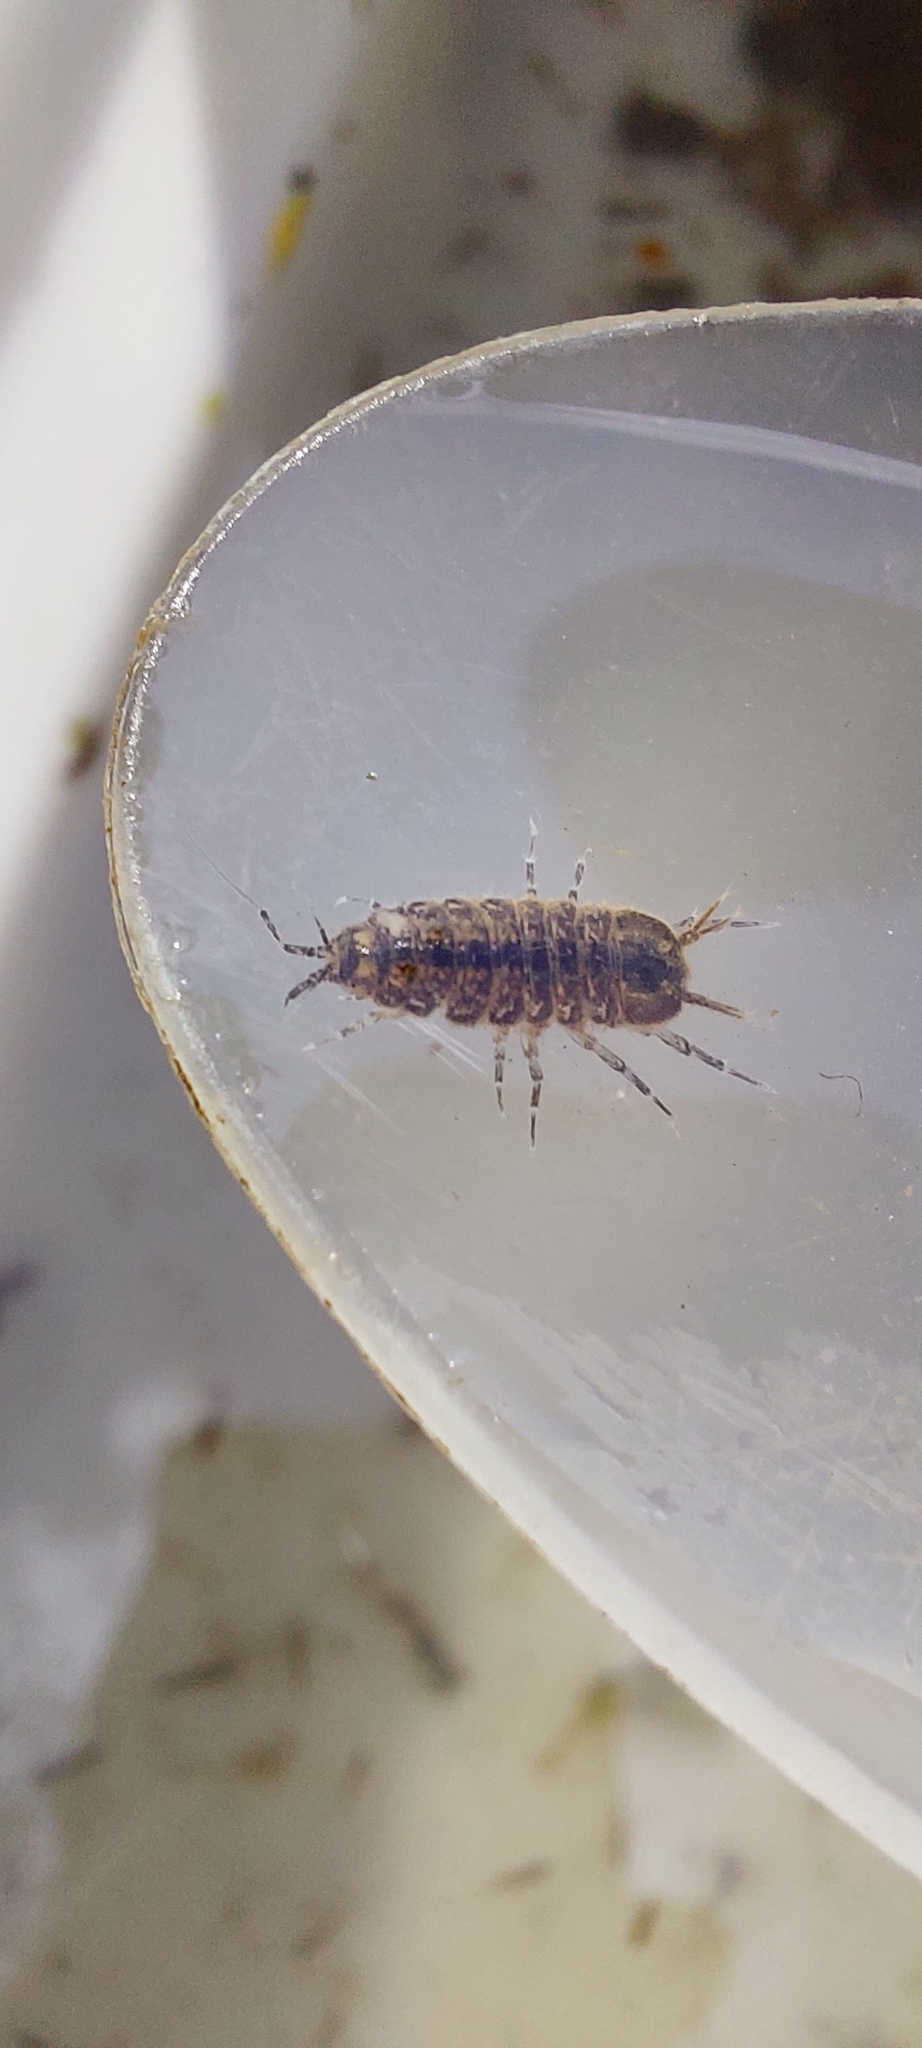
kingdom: Animalia
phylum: Arthropoda
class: Malacostraca
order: Isopoda
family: Asellidae
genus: Asellus
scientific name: Asellus aquaticus
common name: Water hog lice/slaters
